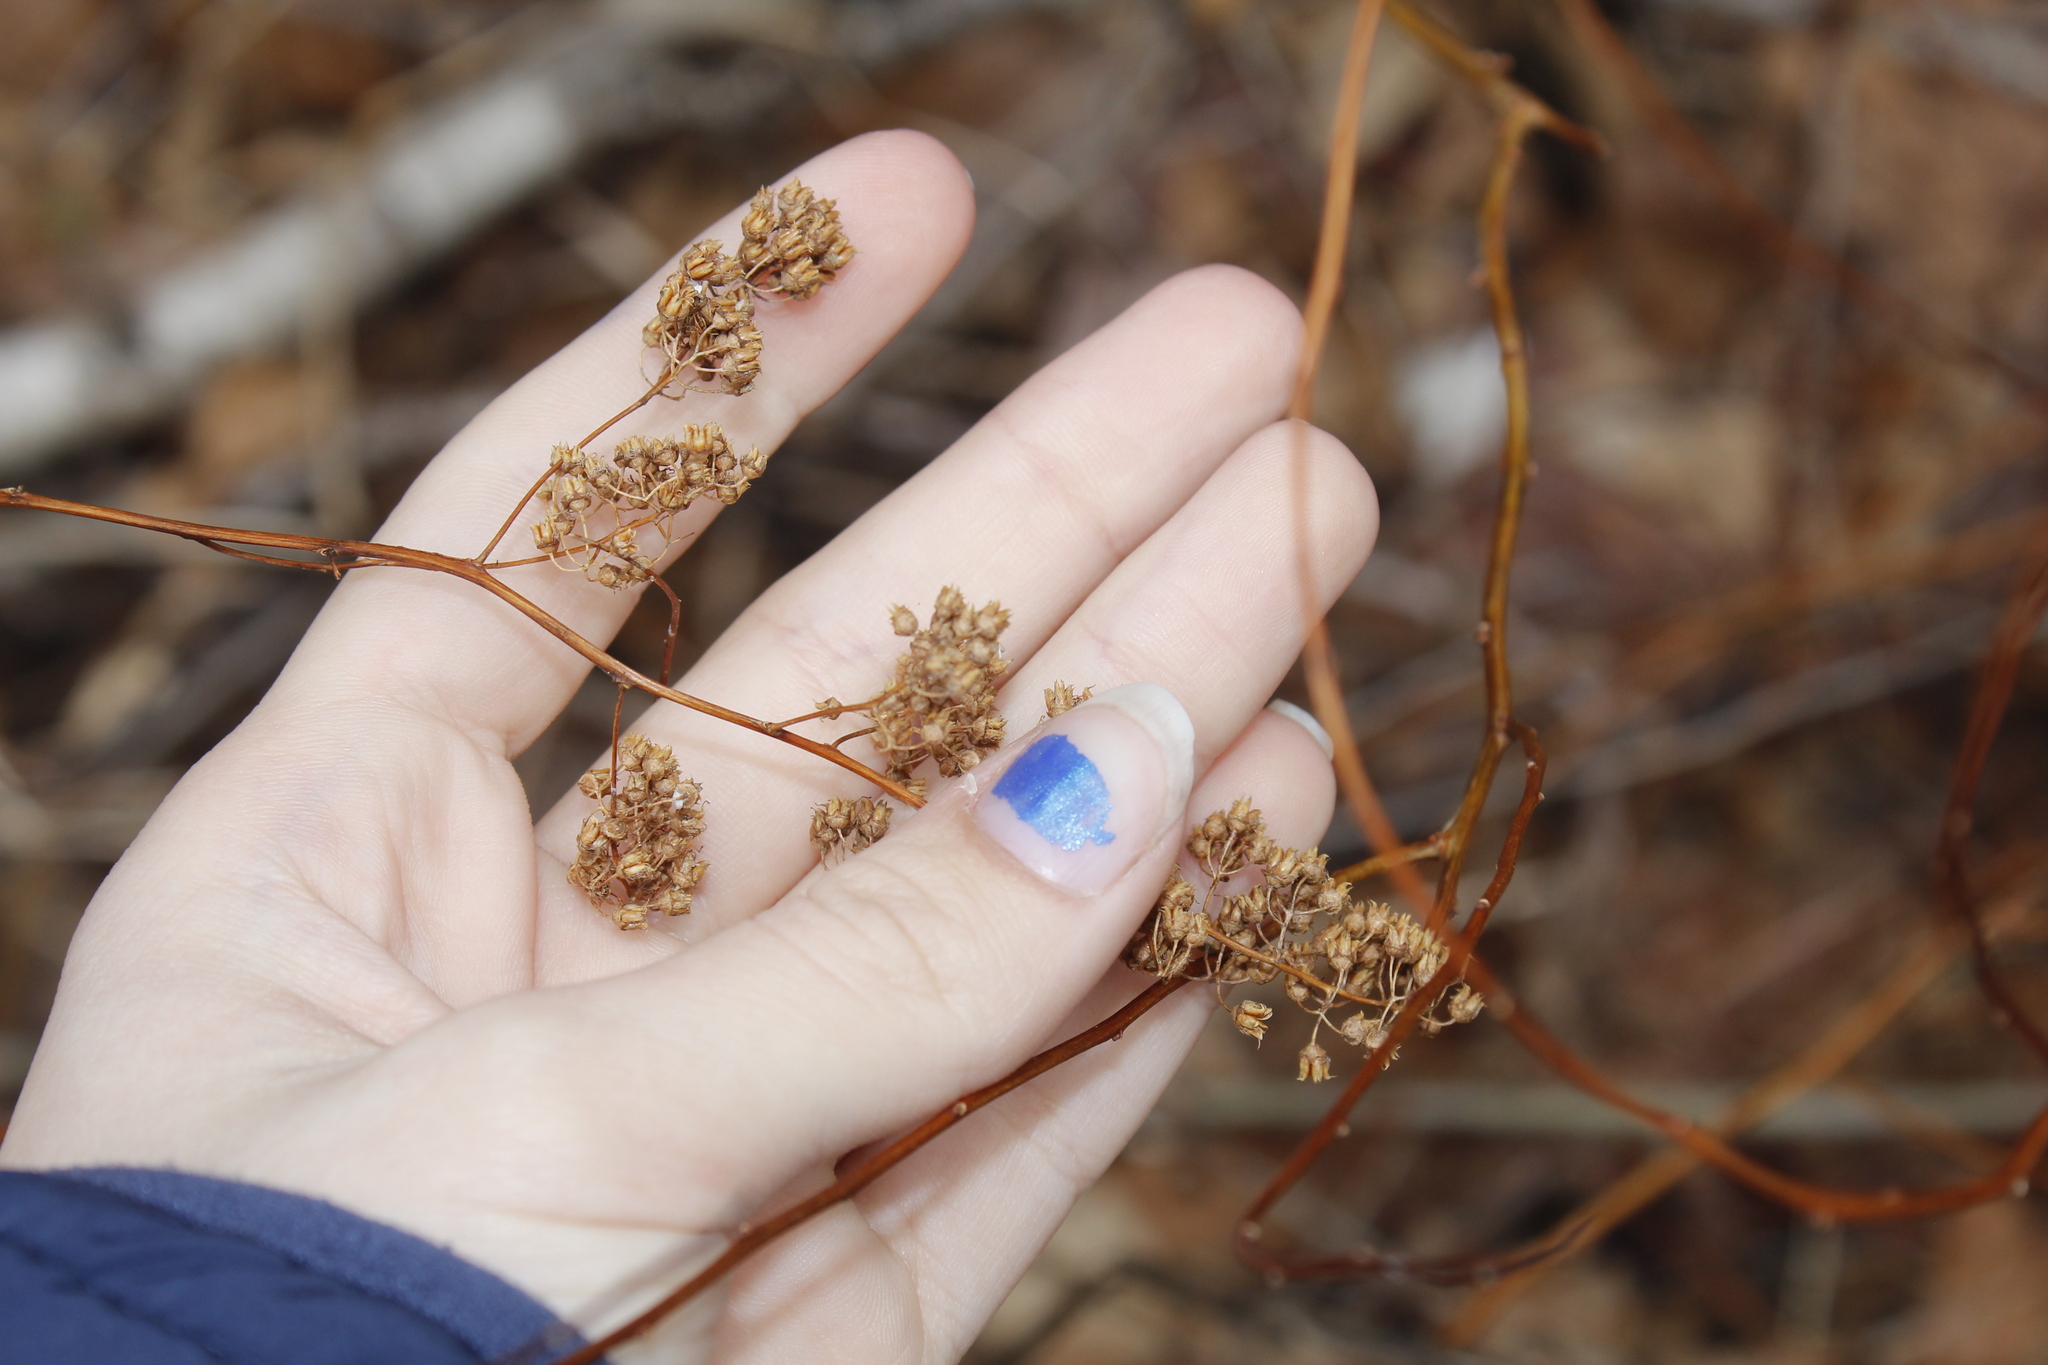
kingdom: Plantae
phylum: Tracheophyta
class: Magnoliopsida
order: Rosales
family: Rosaceae
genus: Spiraea
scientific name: Spiraea alba
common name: Pale bridewort
